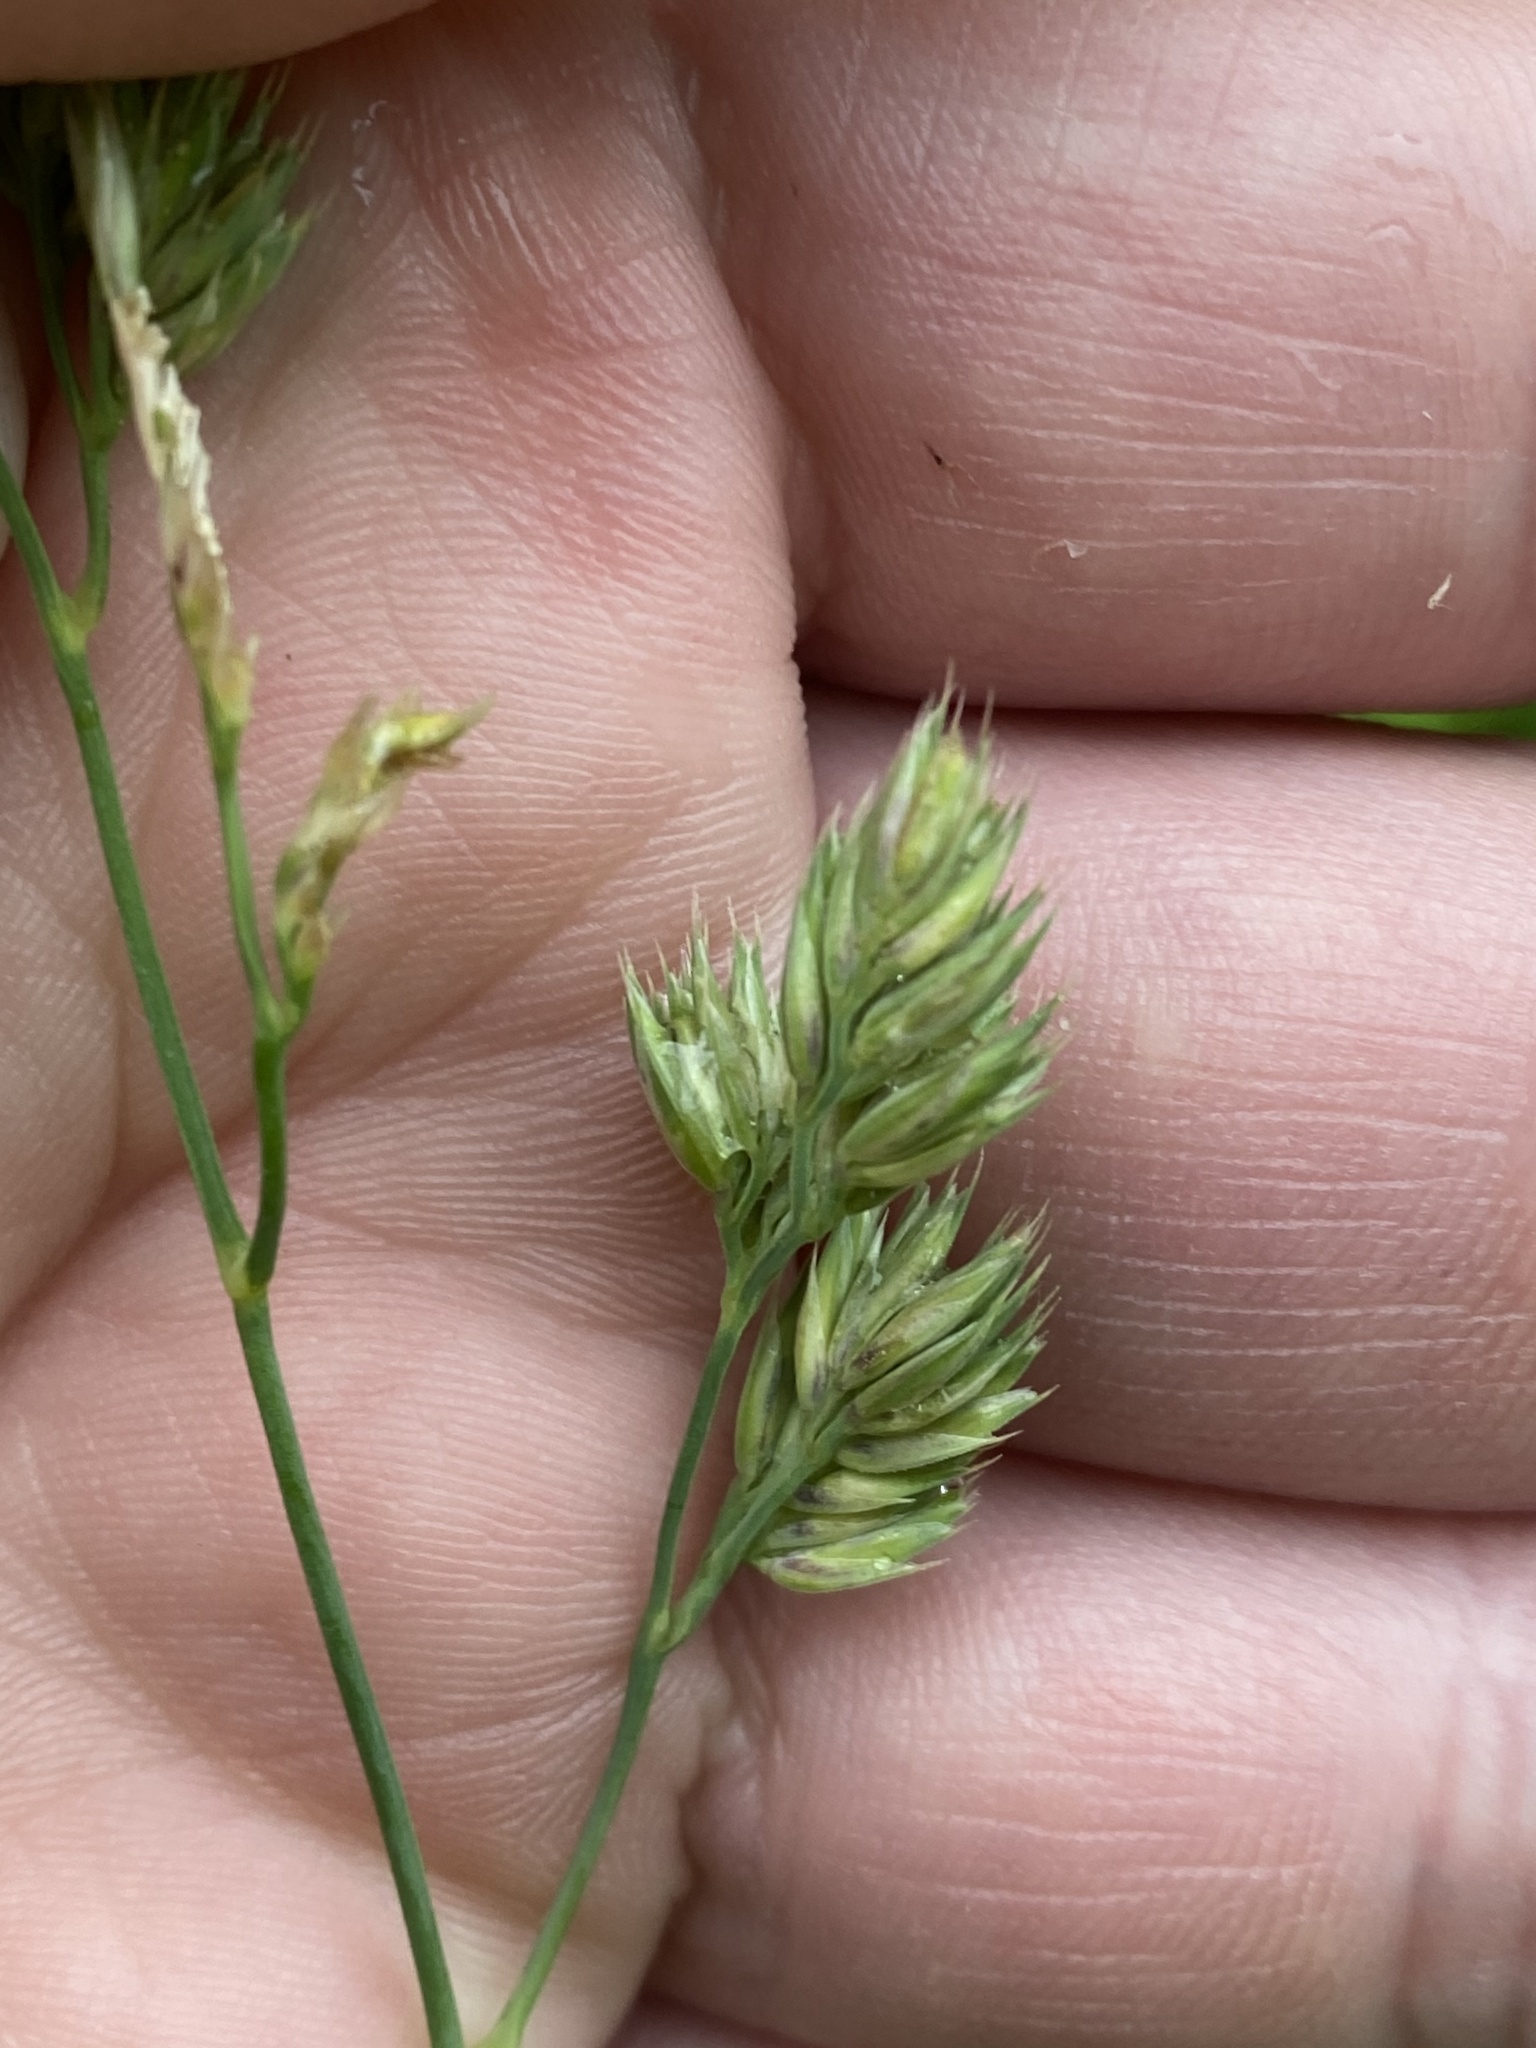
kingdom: Plantae
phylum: Tracheophyta
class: Liliopsida
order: Poales
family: Poaceae
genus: Dactylis
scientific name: Dactylis glomerata
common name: Orchardgrass
